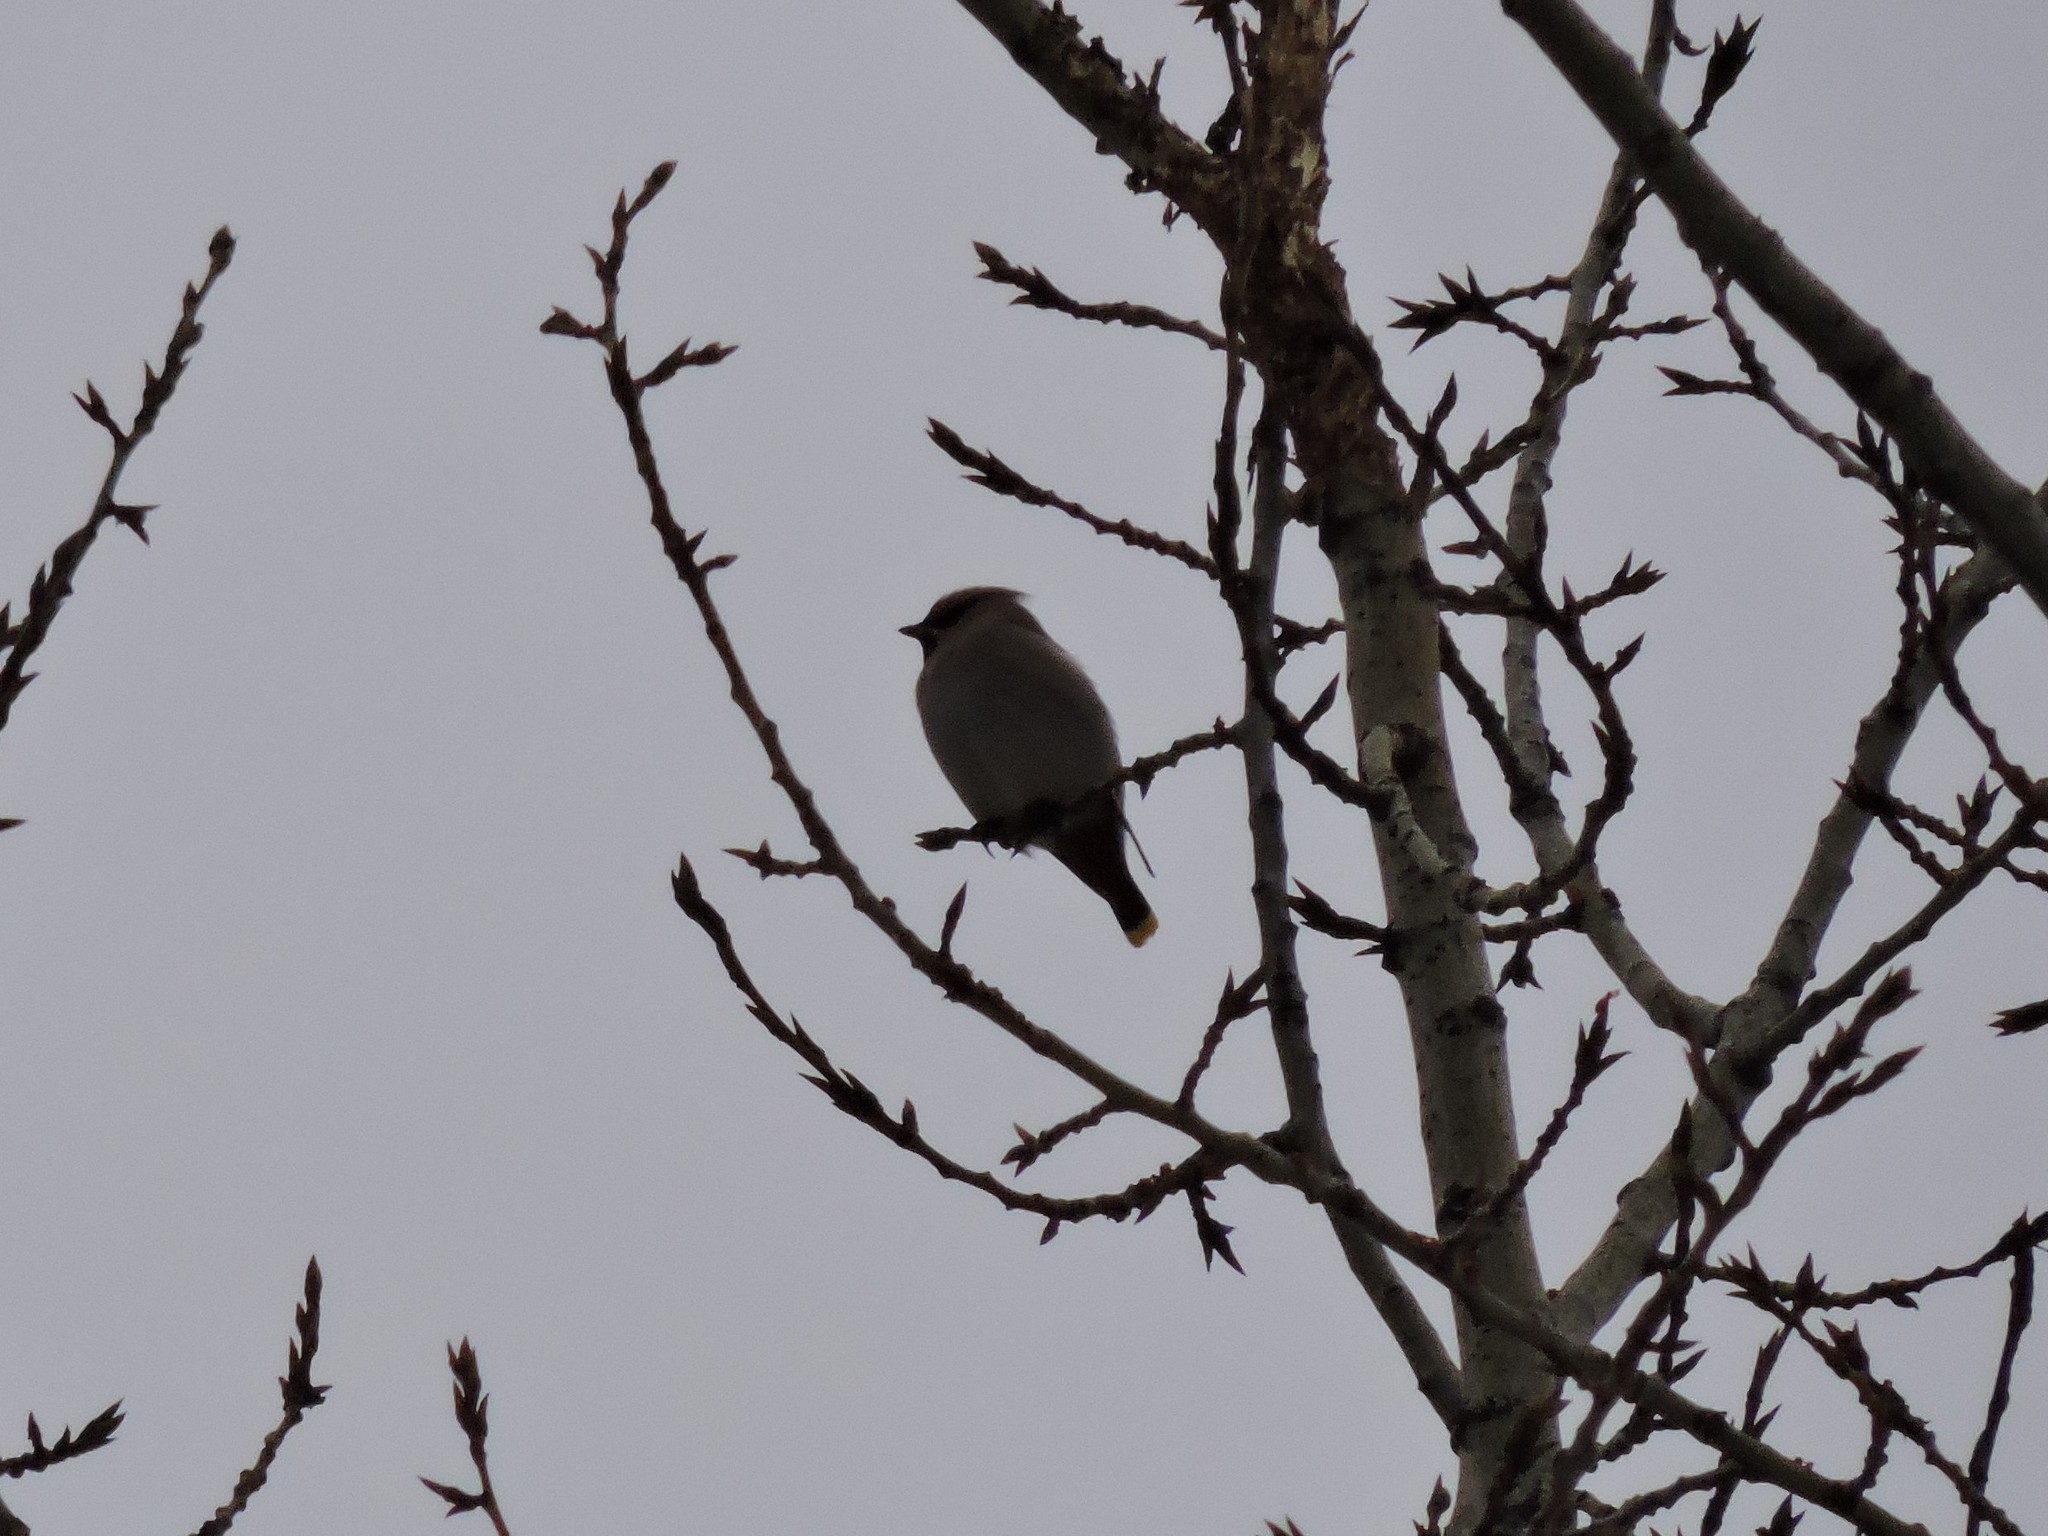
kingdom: Animalia
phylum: Chordata
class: Aves
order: Passeriformes
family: Bombycillidae
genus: Bombycilla
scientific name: Bombycilla garrulus
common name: Bohemian waxwing
